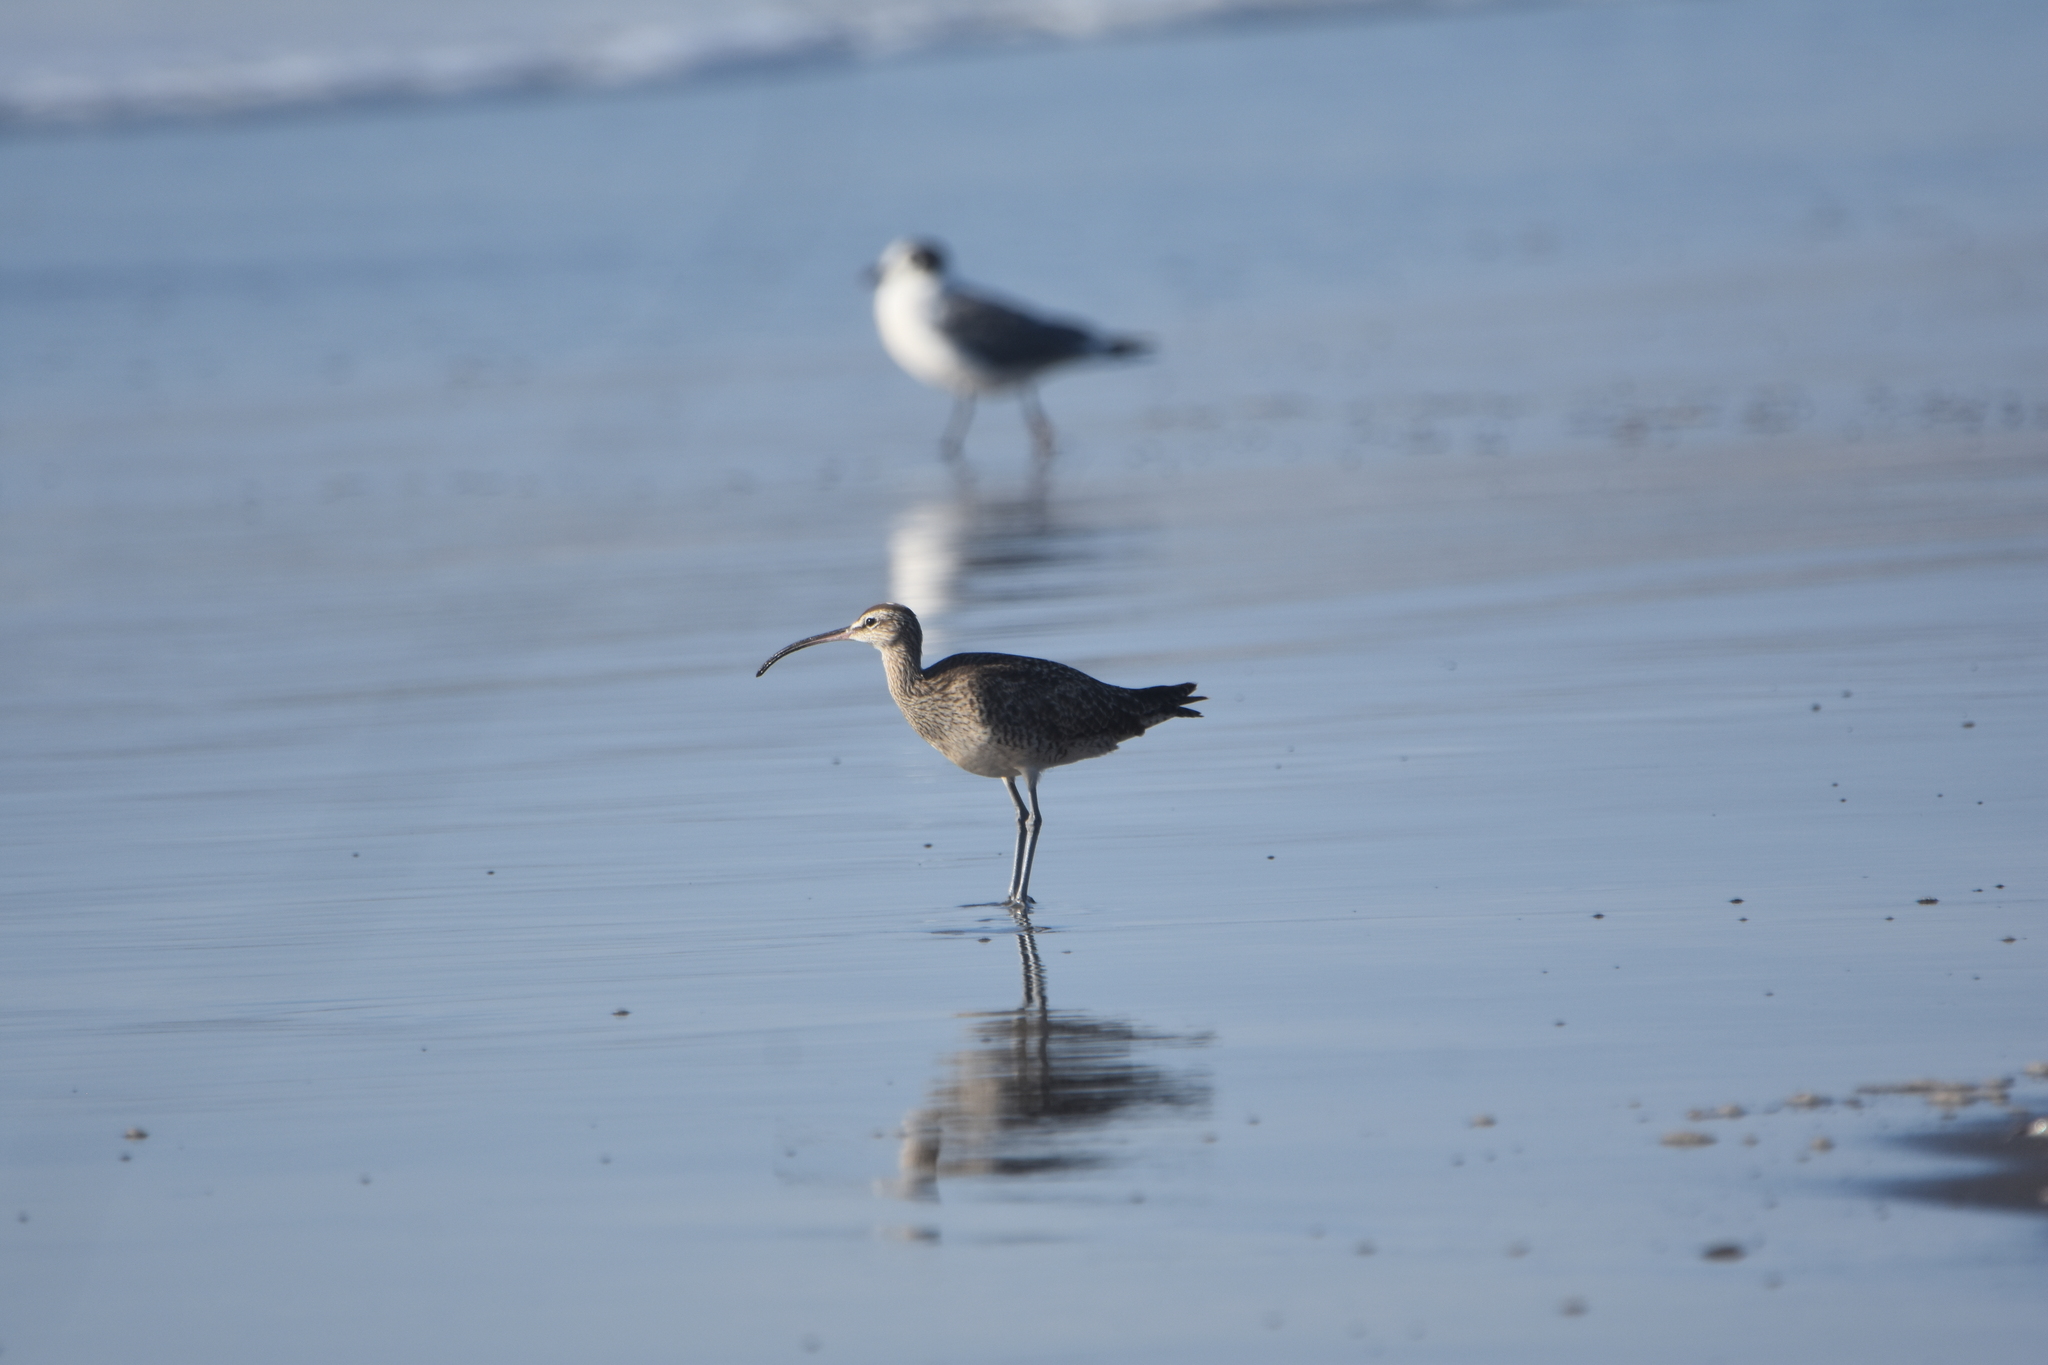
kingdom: Animalia
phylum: Chordata
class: Aves
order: Charadriiformes
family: Scolopacidae
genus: Numenius
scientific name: Numenius hudsonicus
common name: Hudsonian whimbrel
